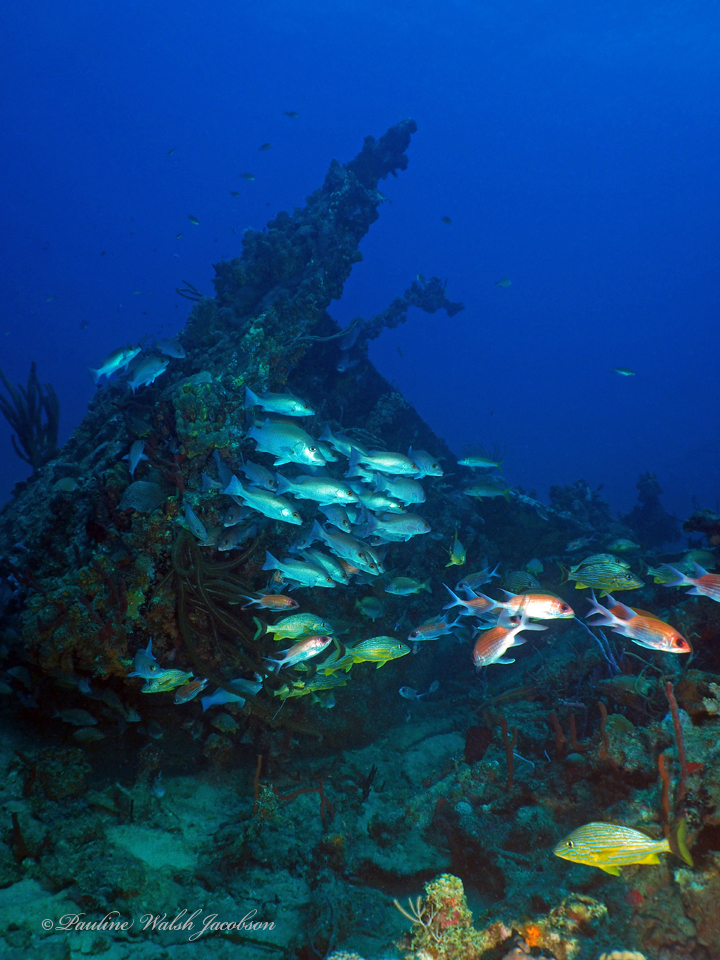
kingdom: Animalia
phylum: Chordata
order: Perciformes
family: Lutjanidae
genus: Lutjanus
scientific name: Lutjanus griseus
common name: Gray snapper
